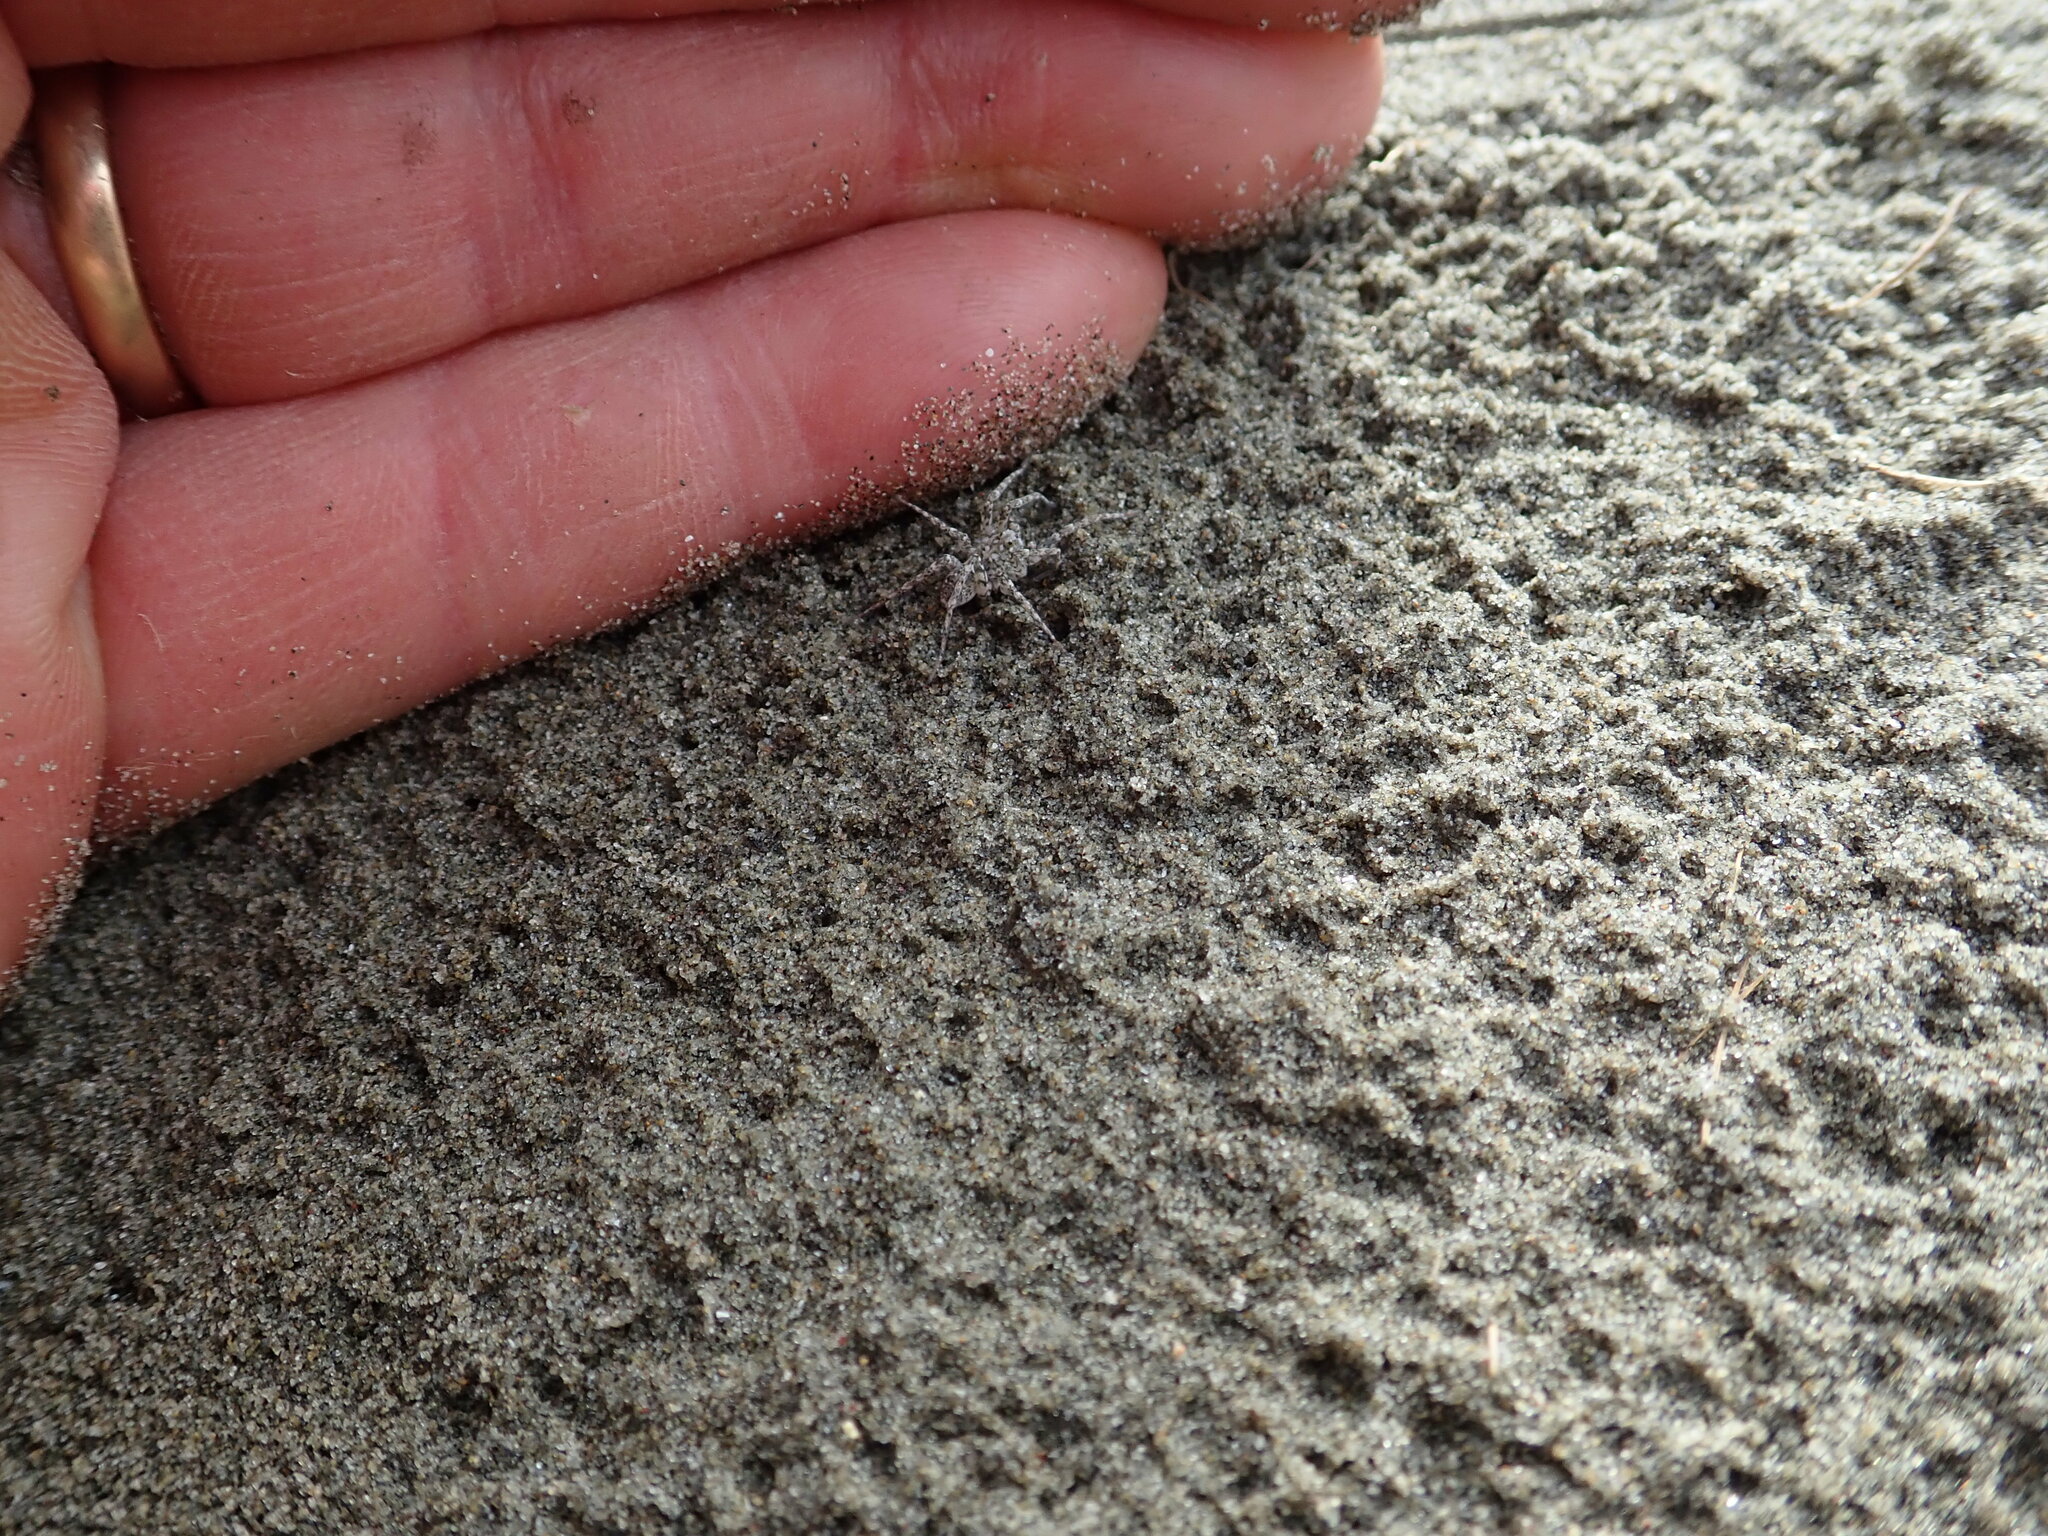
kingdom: Animalia
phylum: Arthropoda
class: Arachnida
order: Araneae
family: Lycosidae
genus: Anoteropsis
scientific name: Anoteropsis litoralis
